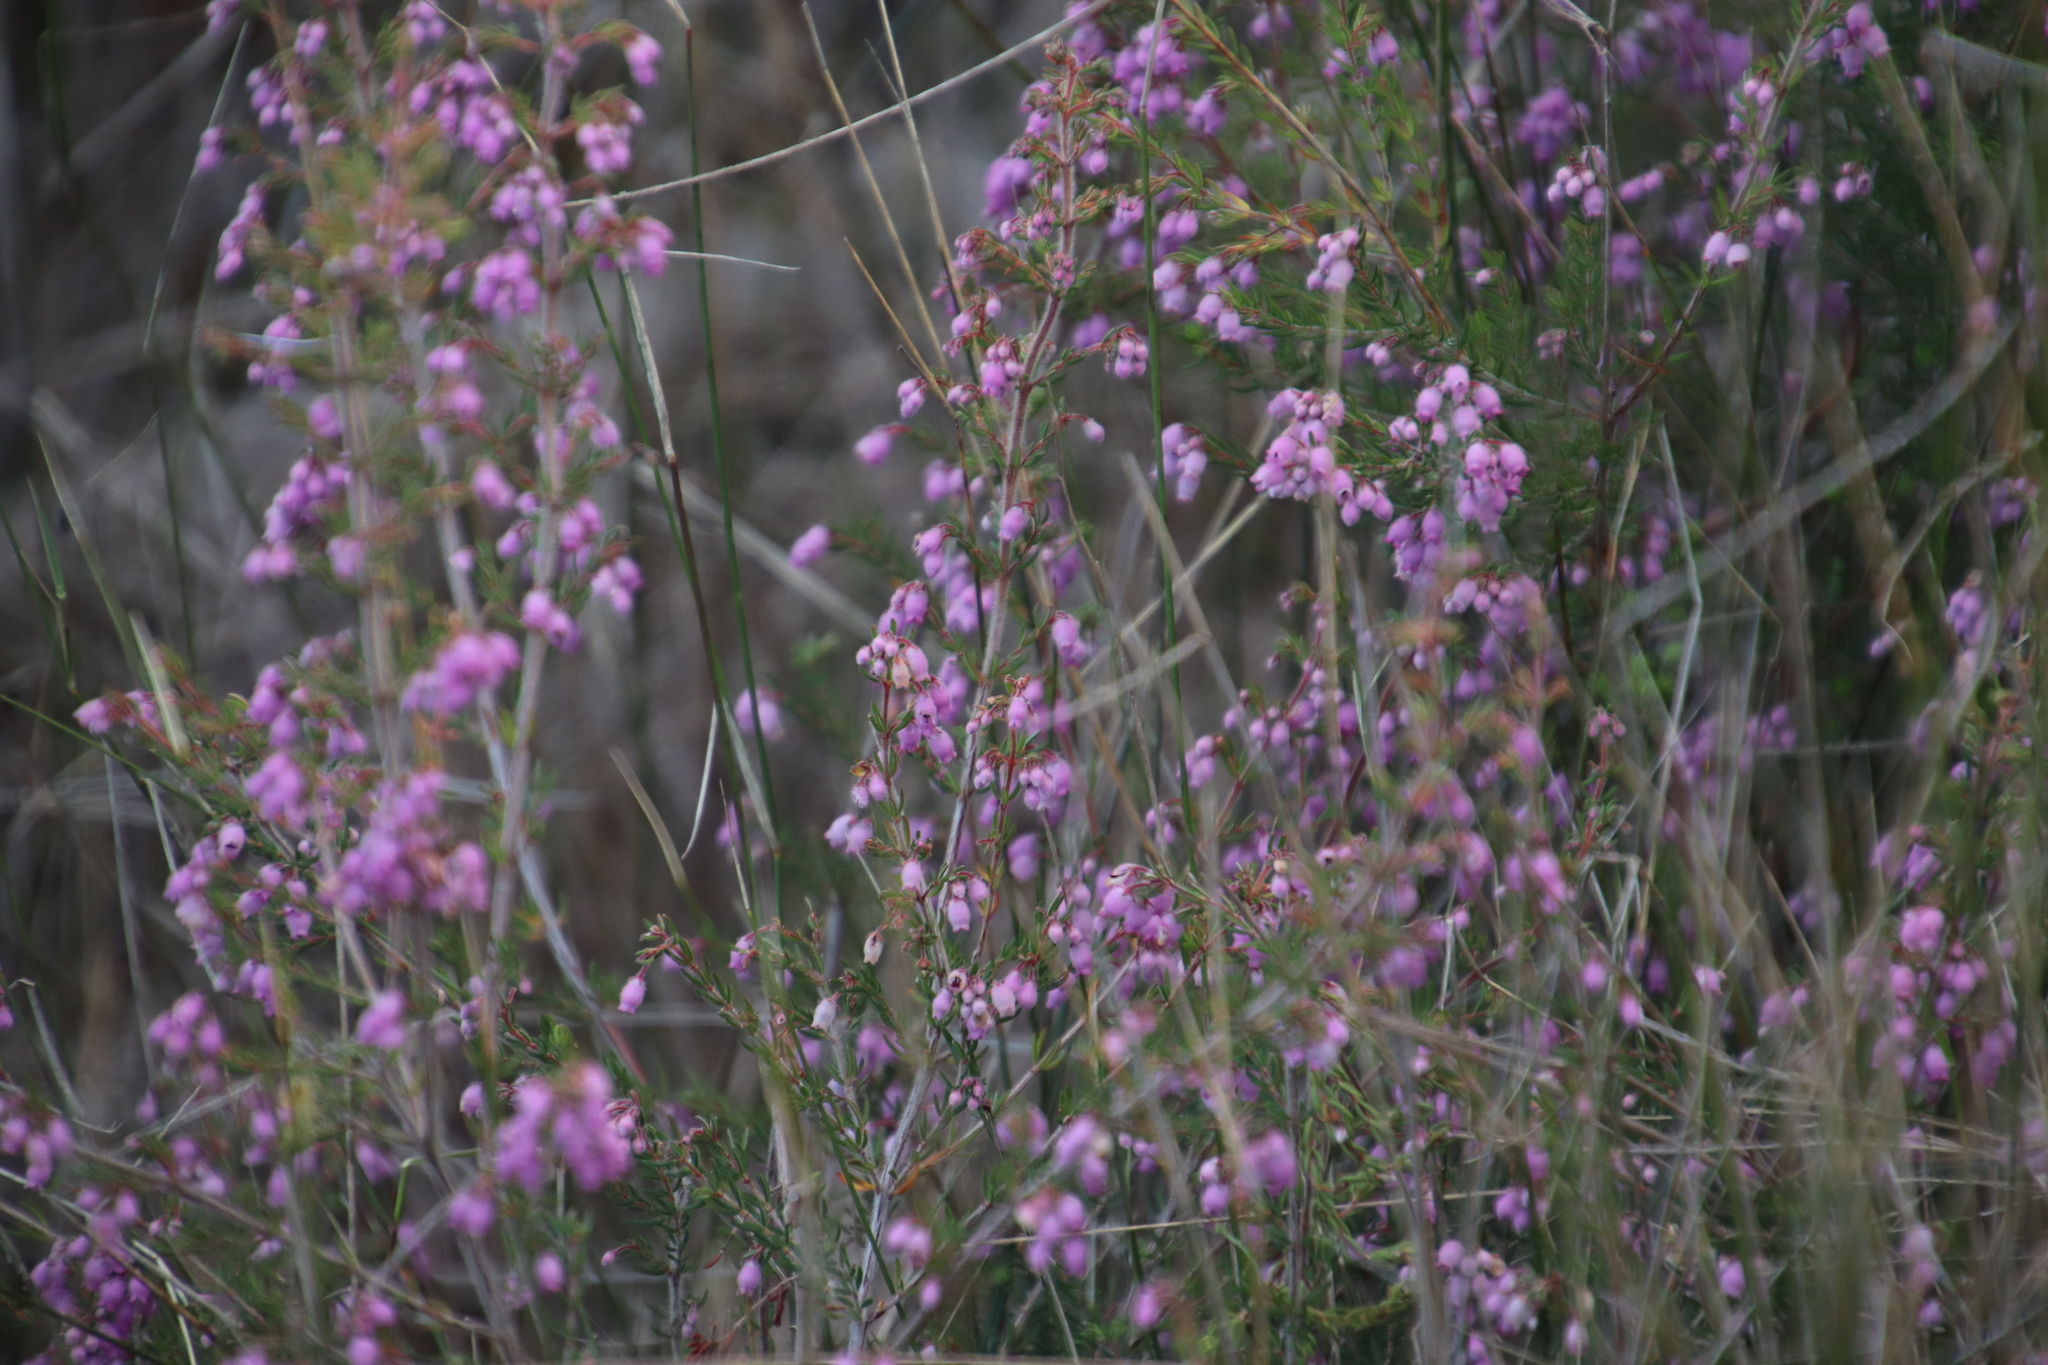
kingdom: Plantae
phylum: Tracheophyta
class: Magnoliopsida
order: Ericales
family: Ericaceae
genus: Erica
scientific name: Erica hirtiflora
